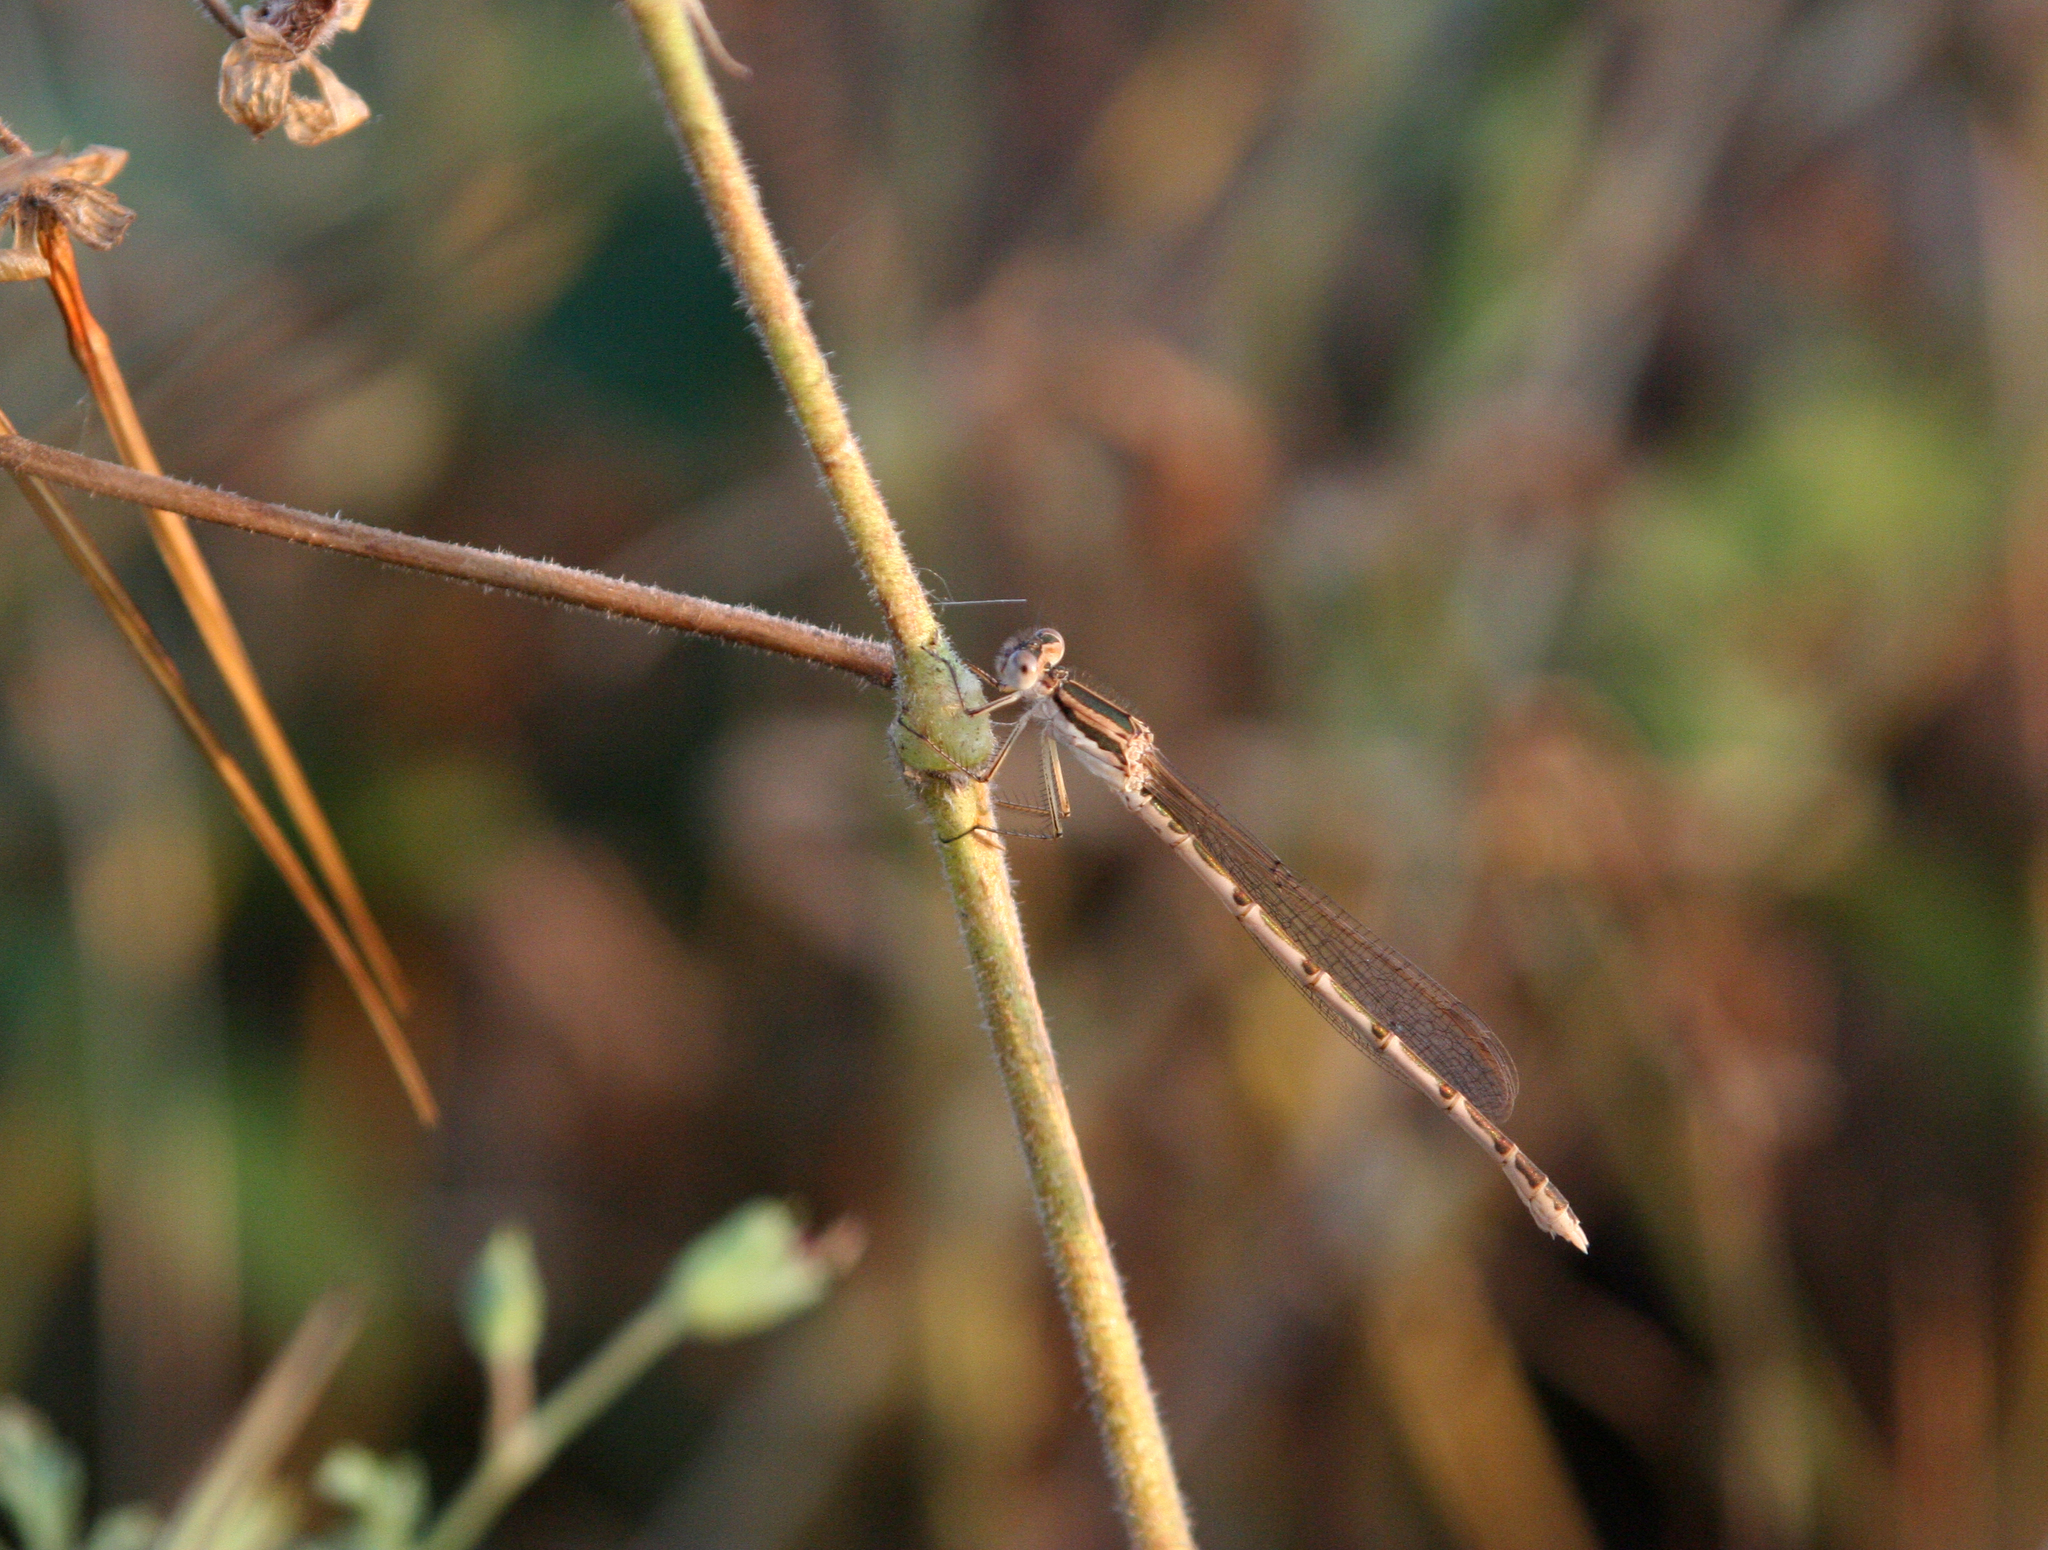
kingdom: Animalia
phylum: Arthropoda
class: Insecta
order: Odonata
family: Lestidae
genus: Sympecma
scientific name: Sympecma fusca
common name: Common winter damsel
